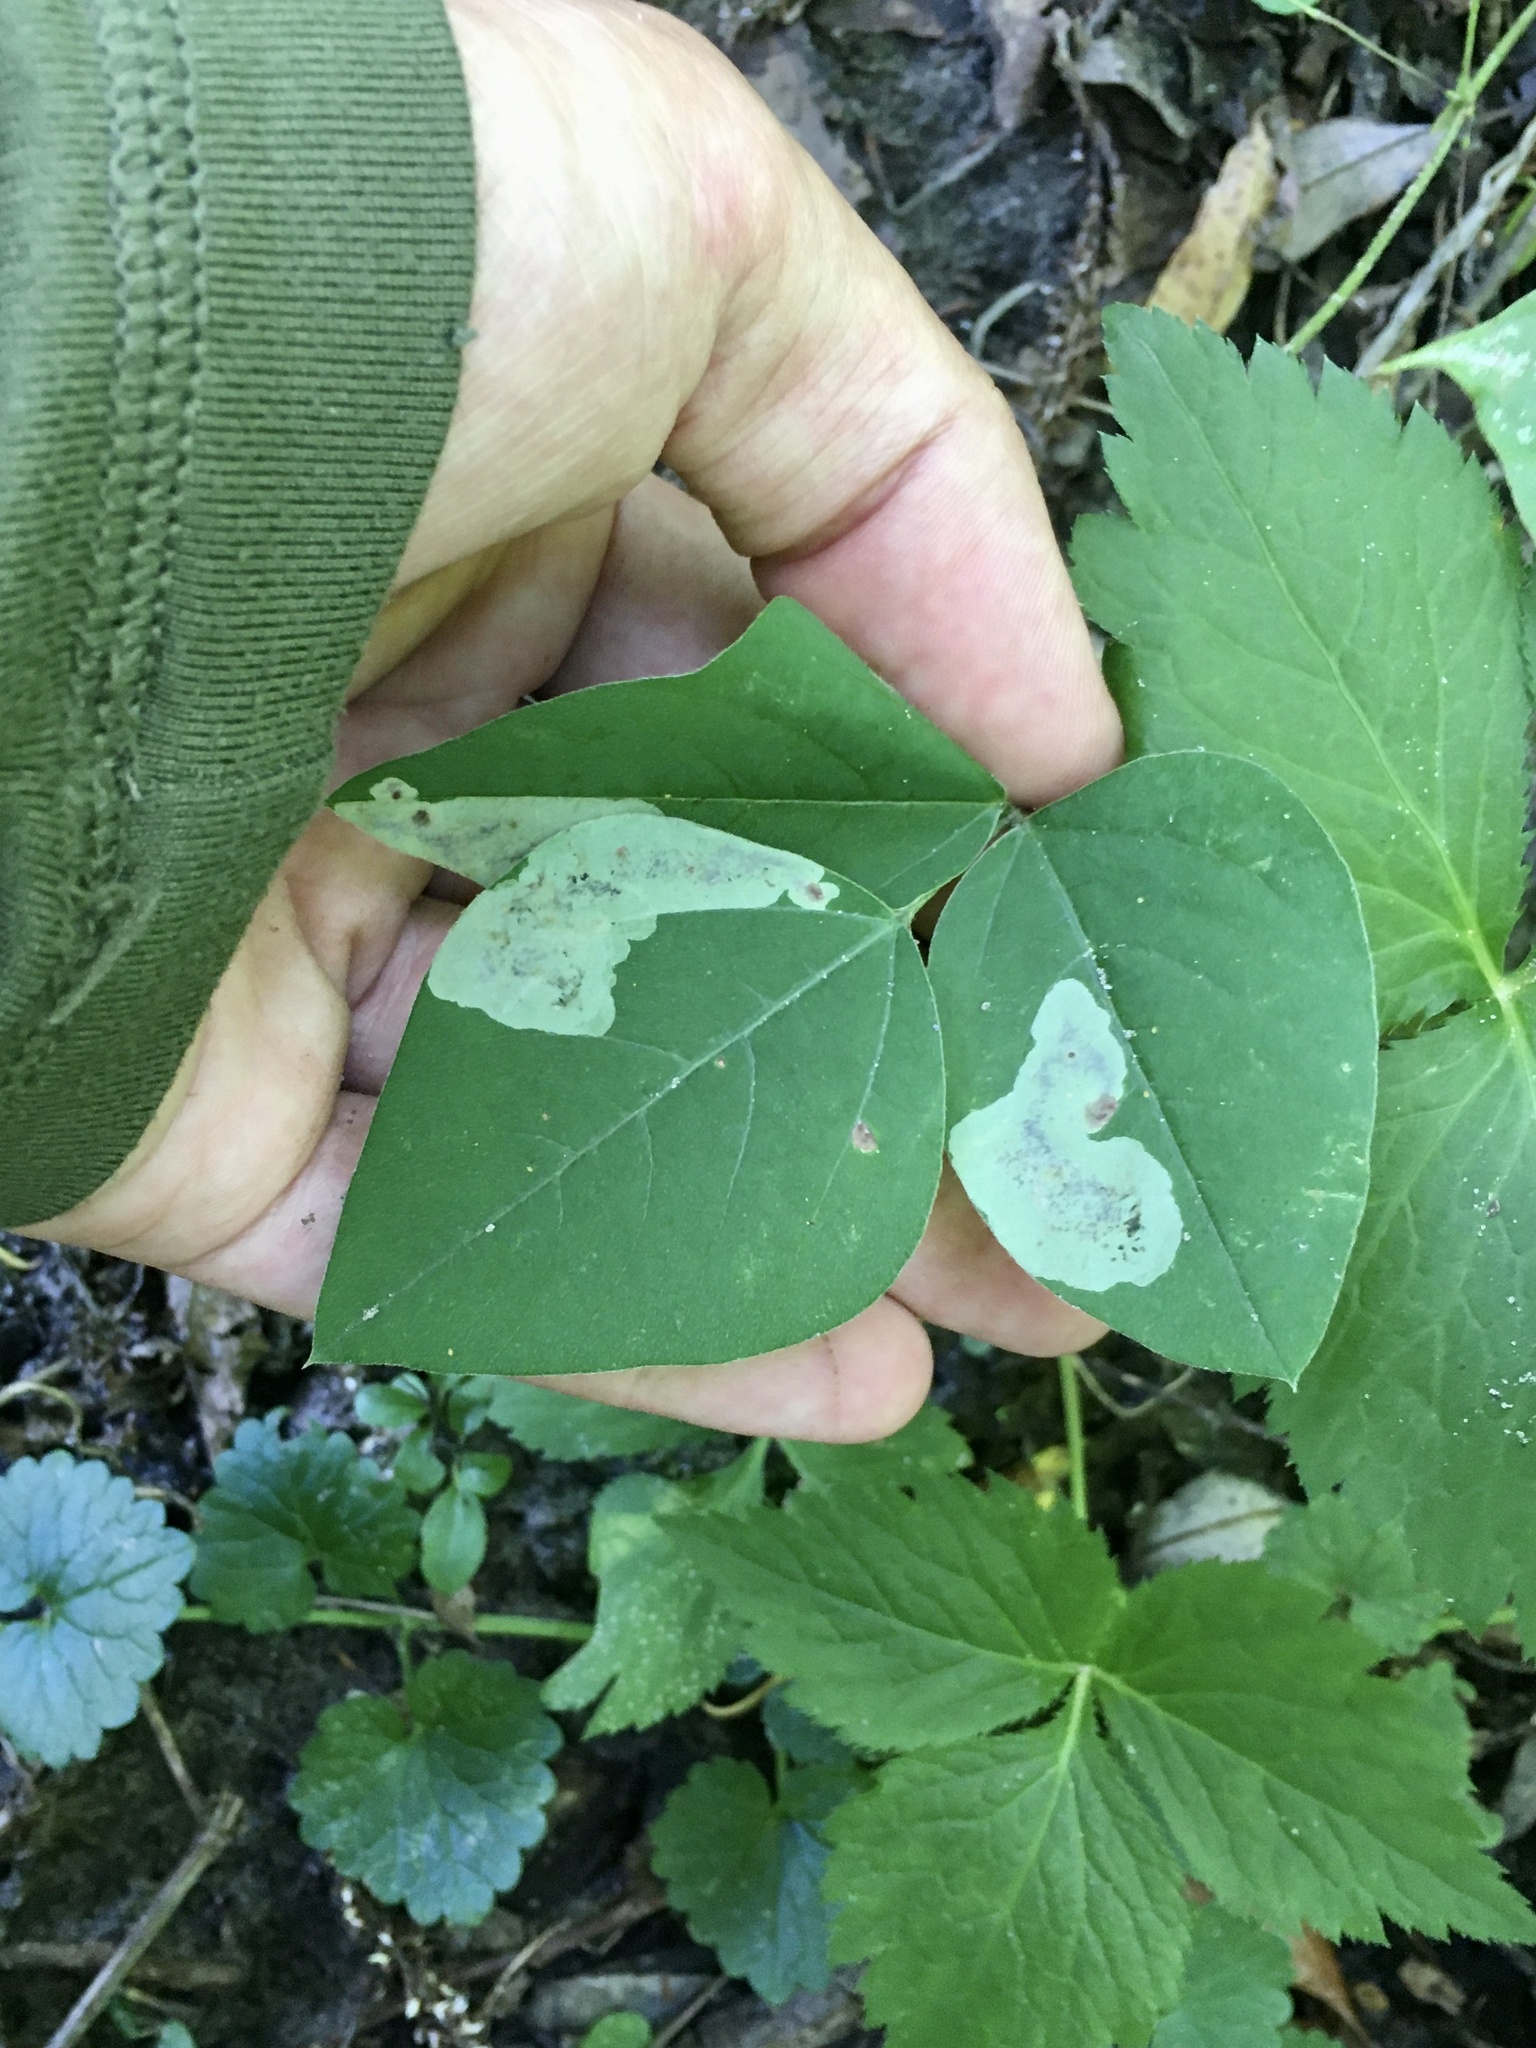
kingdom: Animalia
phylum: Arthropoda
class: Insecta
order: Lepidoptera
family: Gracillariidae
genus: Leucanthiza
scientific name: Leucanthiza amphicarpeaefoliella
